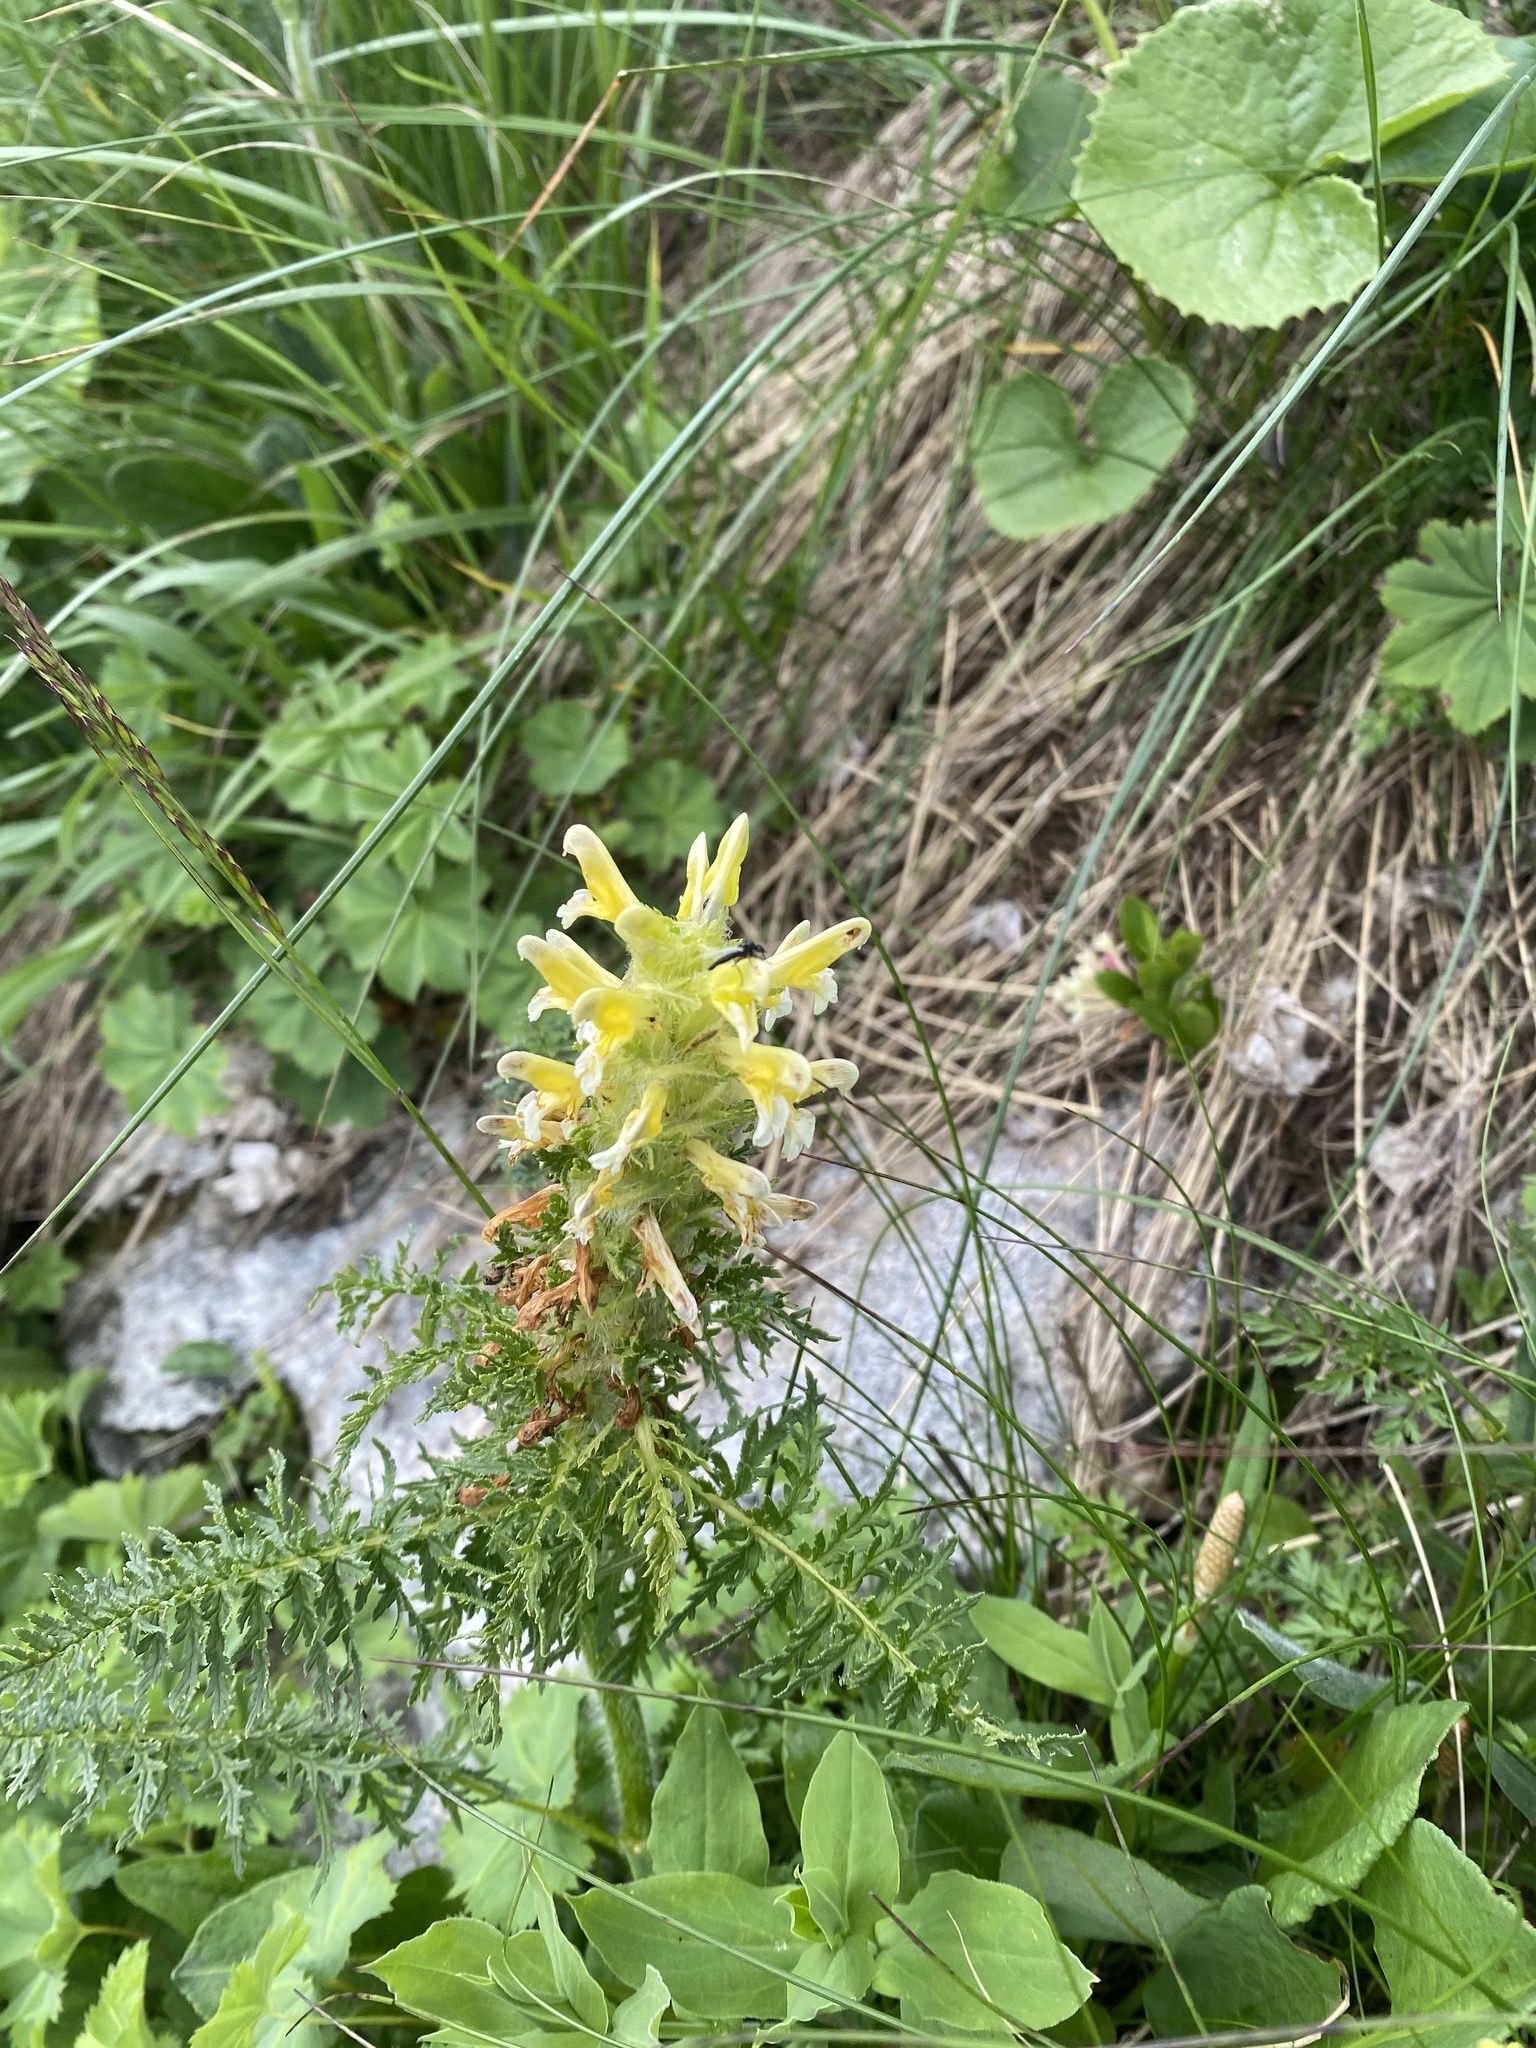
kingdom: Plantae
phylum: Tracheophyta
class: Magnoliopsida
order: Lamiales
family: Orobanchaceae
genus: Pedicularis
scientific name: Pedicularis condensata
